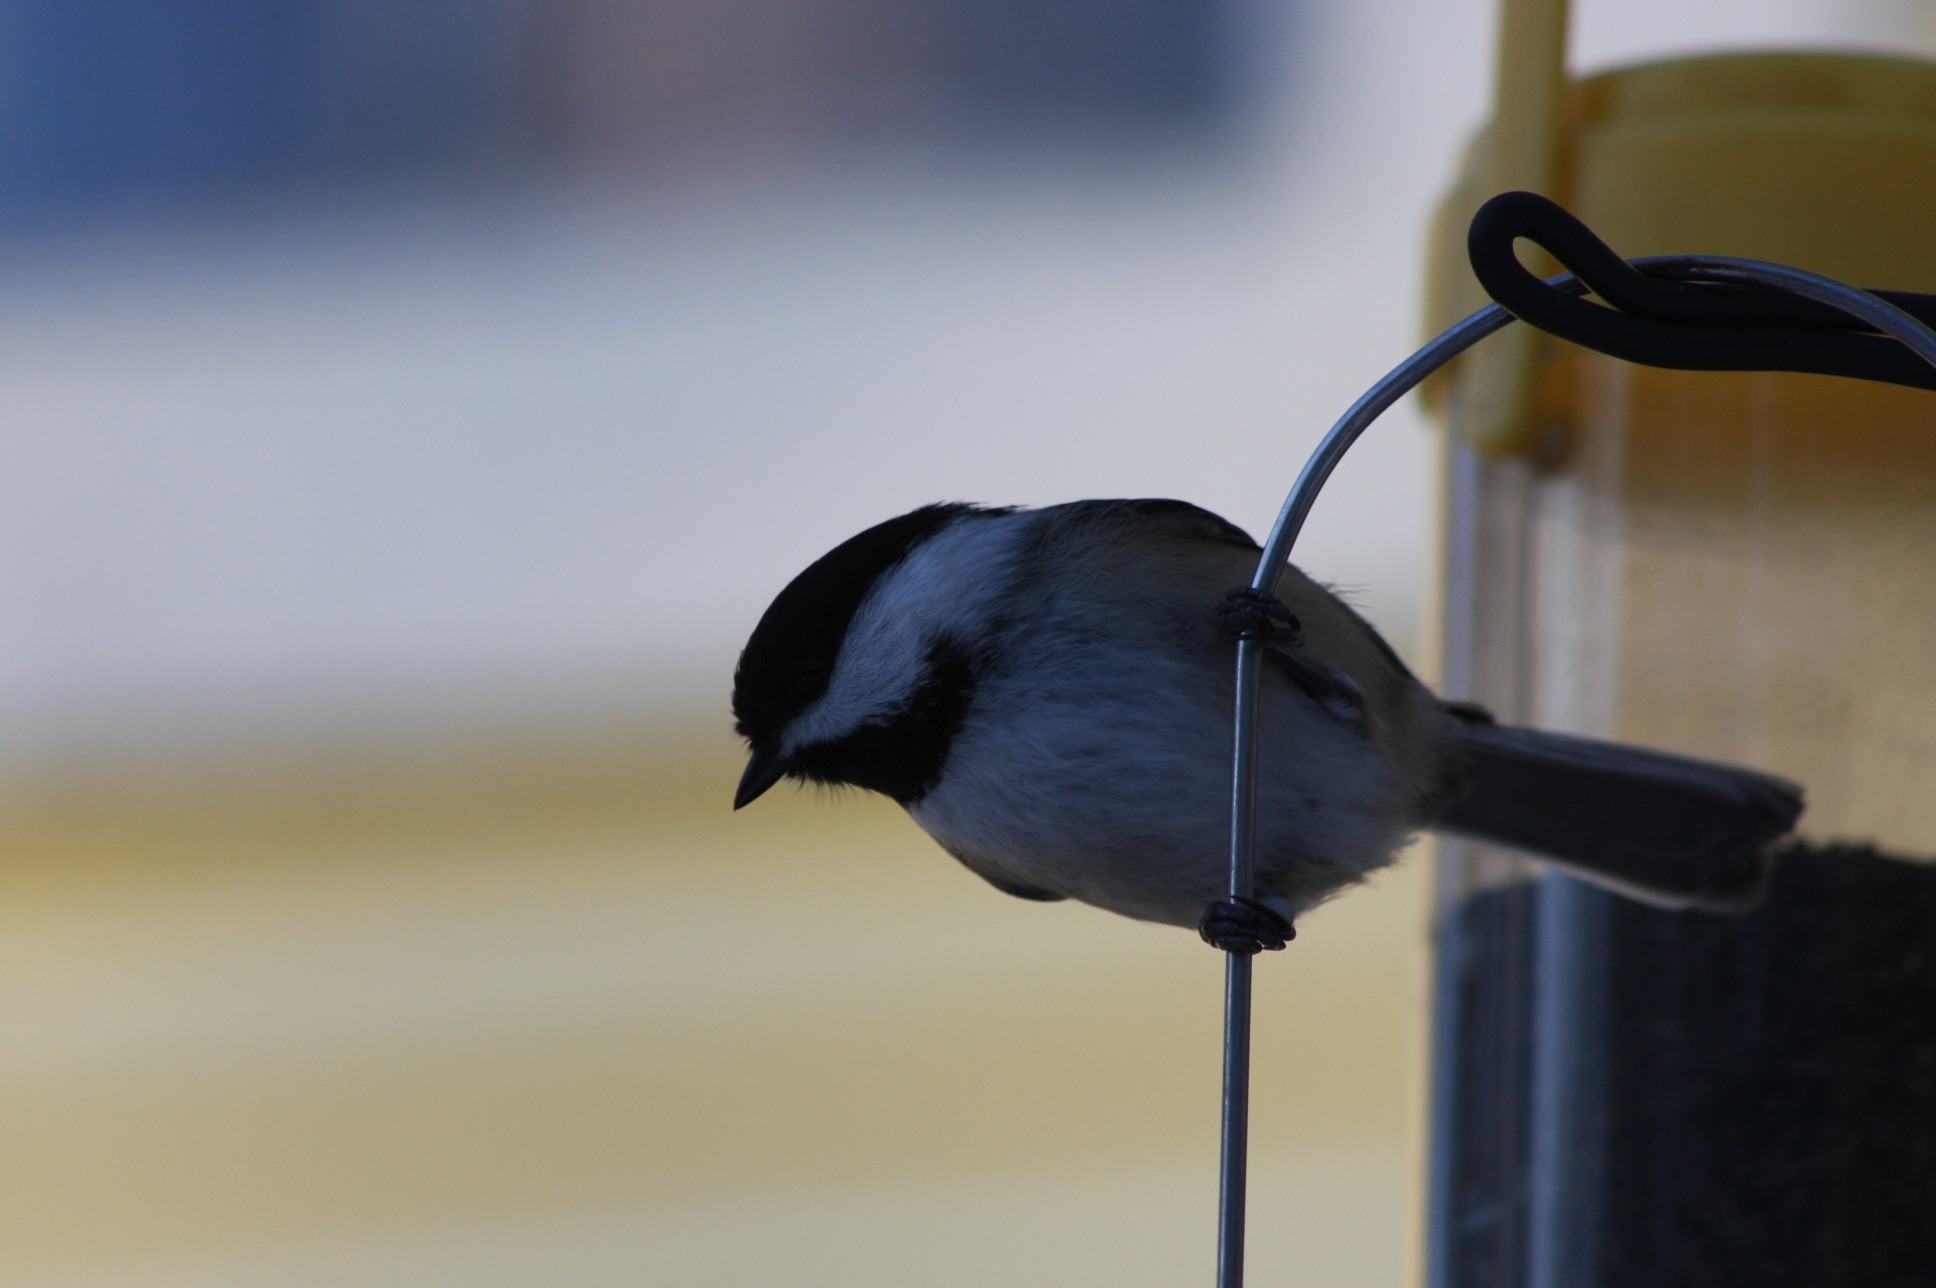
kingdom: Animalia
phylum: Chordata
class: Aves
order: Passeriformes
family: Paridae
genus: Poecile
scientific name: Poecile atricapillus
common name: Black-capped chickadee
